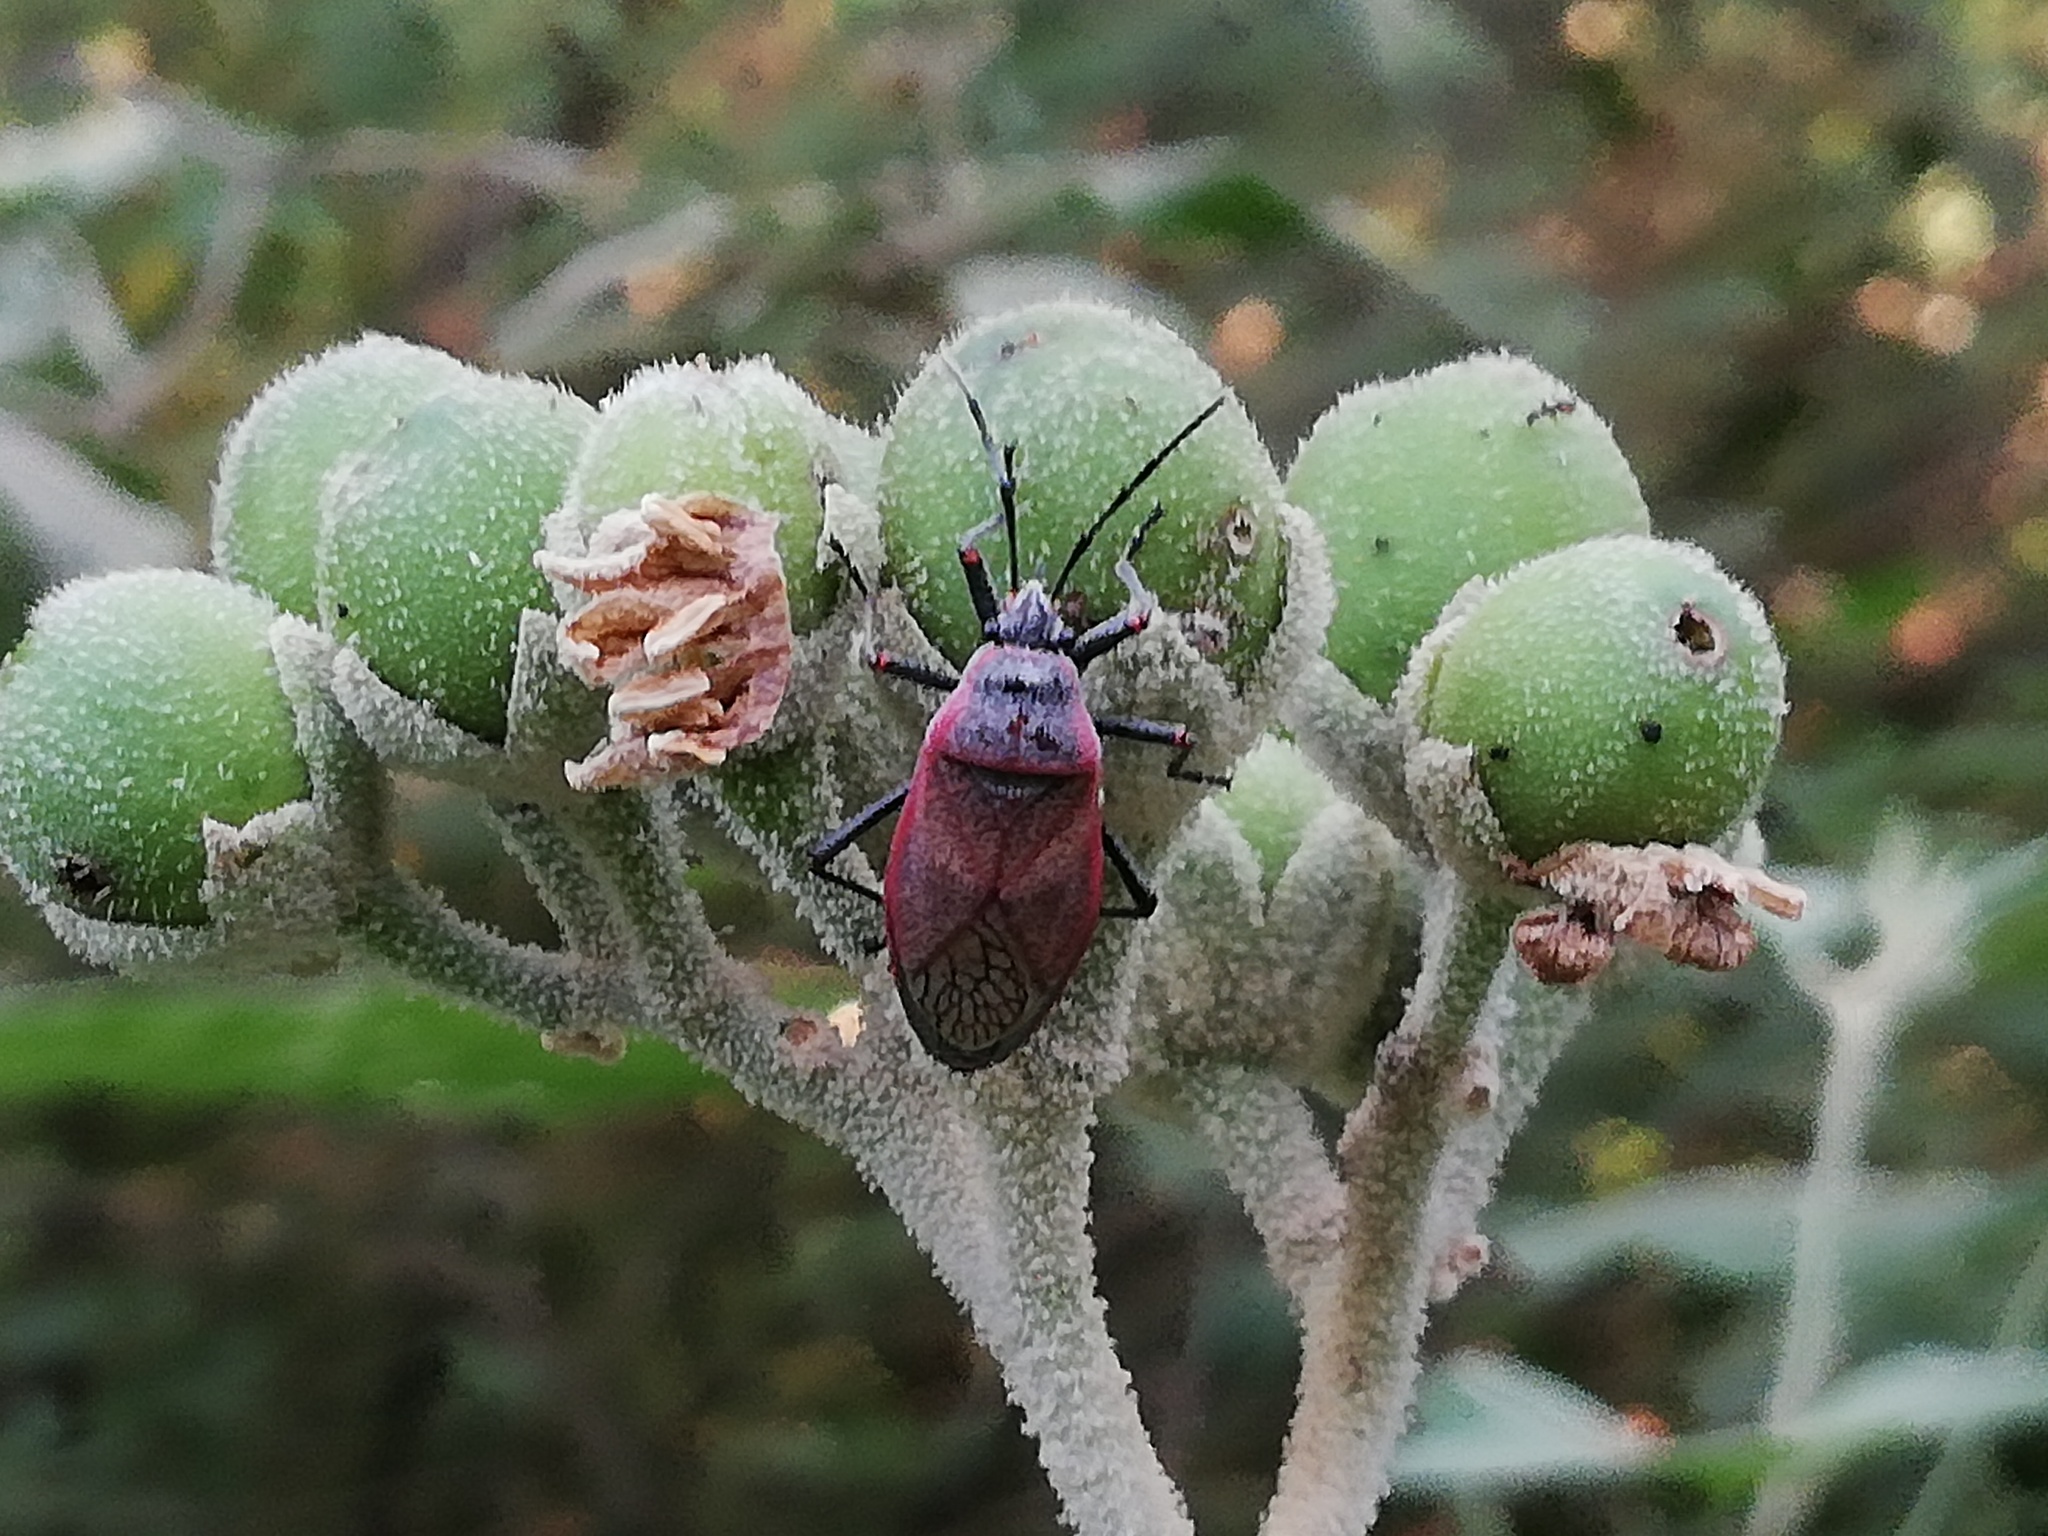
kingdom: Animalia
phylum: Arthropoda
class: Insecta
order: Hemiptera
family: Largidae
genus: Largus
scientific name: Largus maculatus
